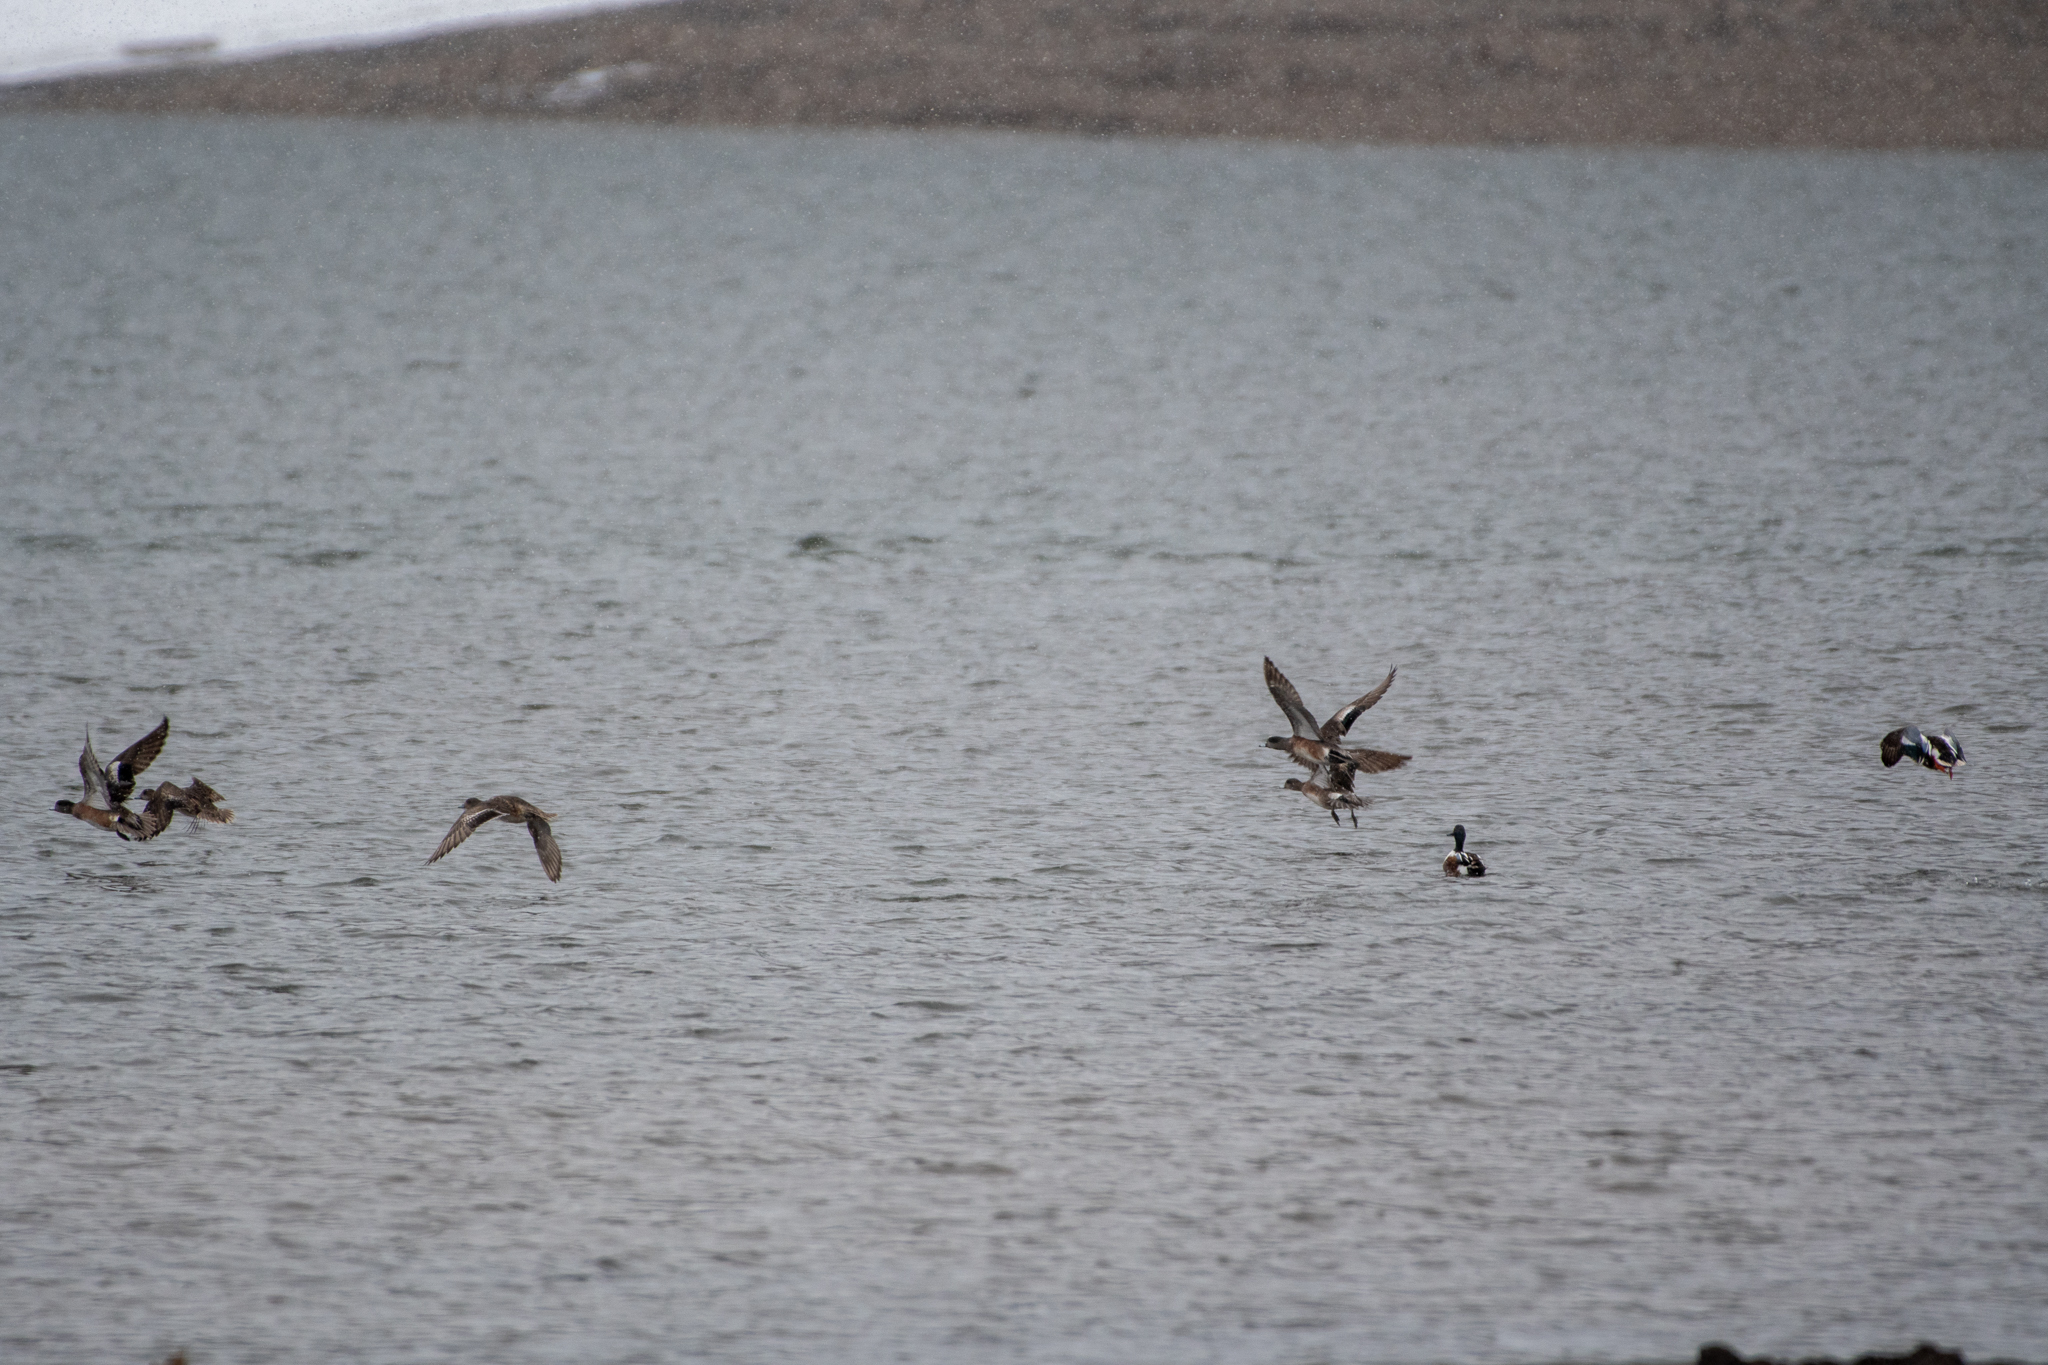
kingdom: Animalia
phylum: Chordata
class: Aves
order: Anseriformes
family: Anatidae
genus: Mareca
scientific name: Mareca americana
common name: American wigeon
